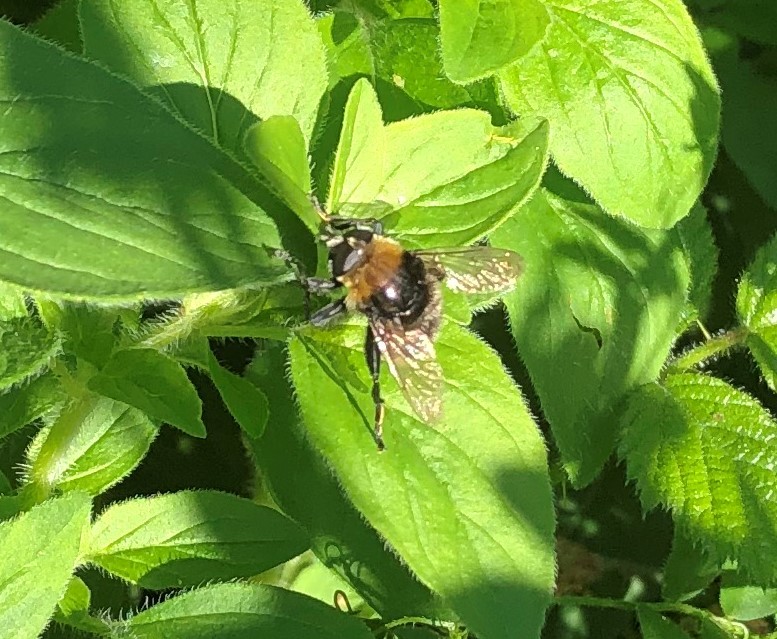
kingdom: Animalia
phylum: Arthropoda
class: Insecta
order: Diptera
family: Syrphidae
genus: Merodon
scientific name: Merodon equestris
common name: Greater bulb-fly
